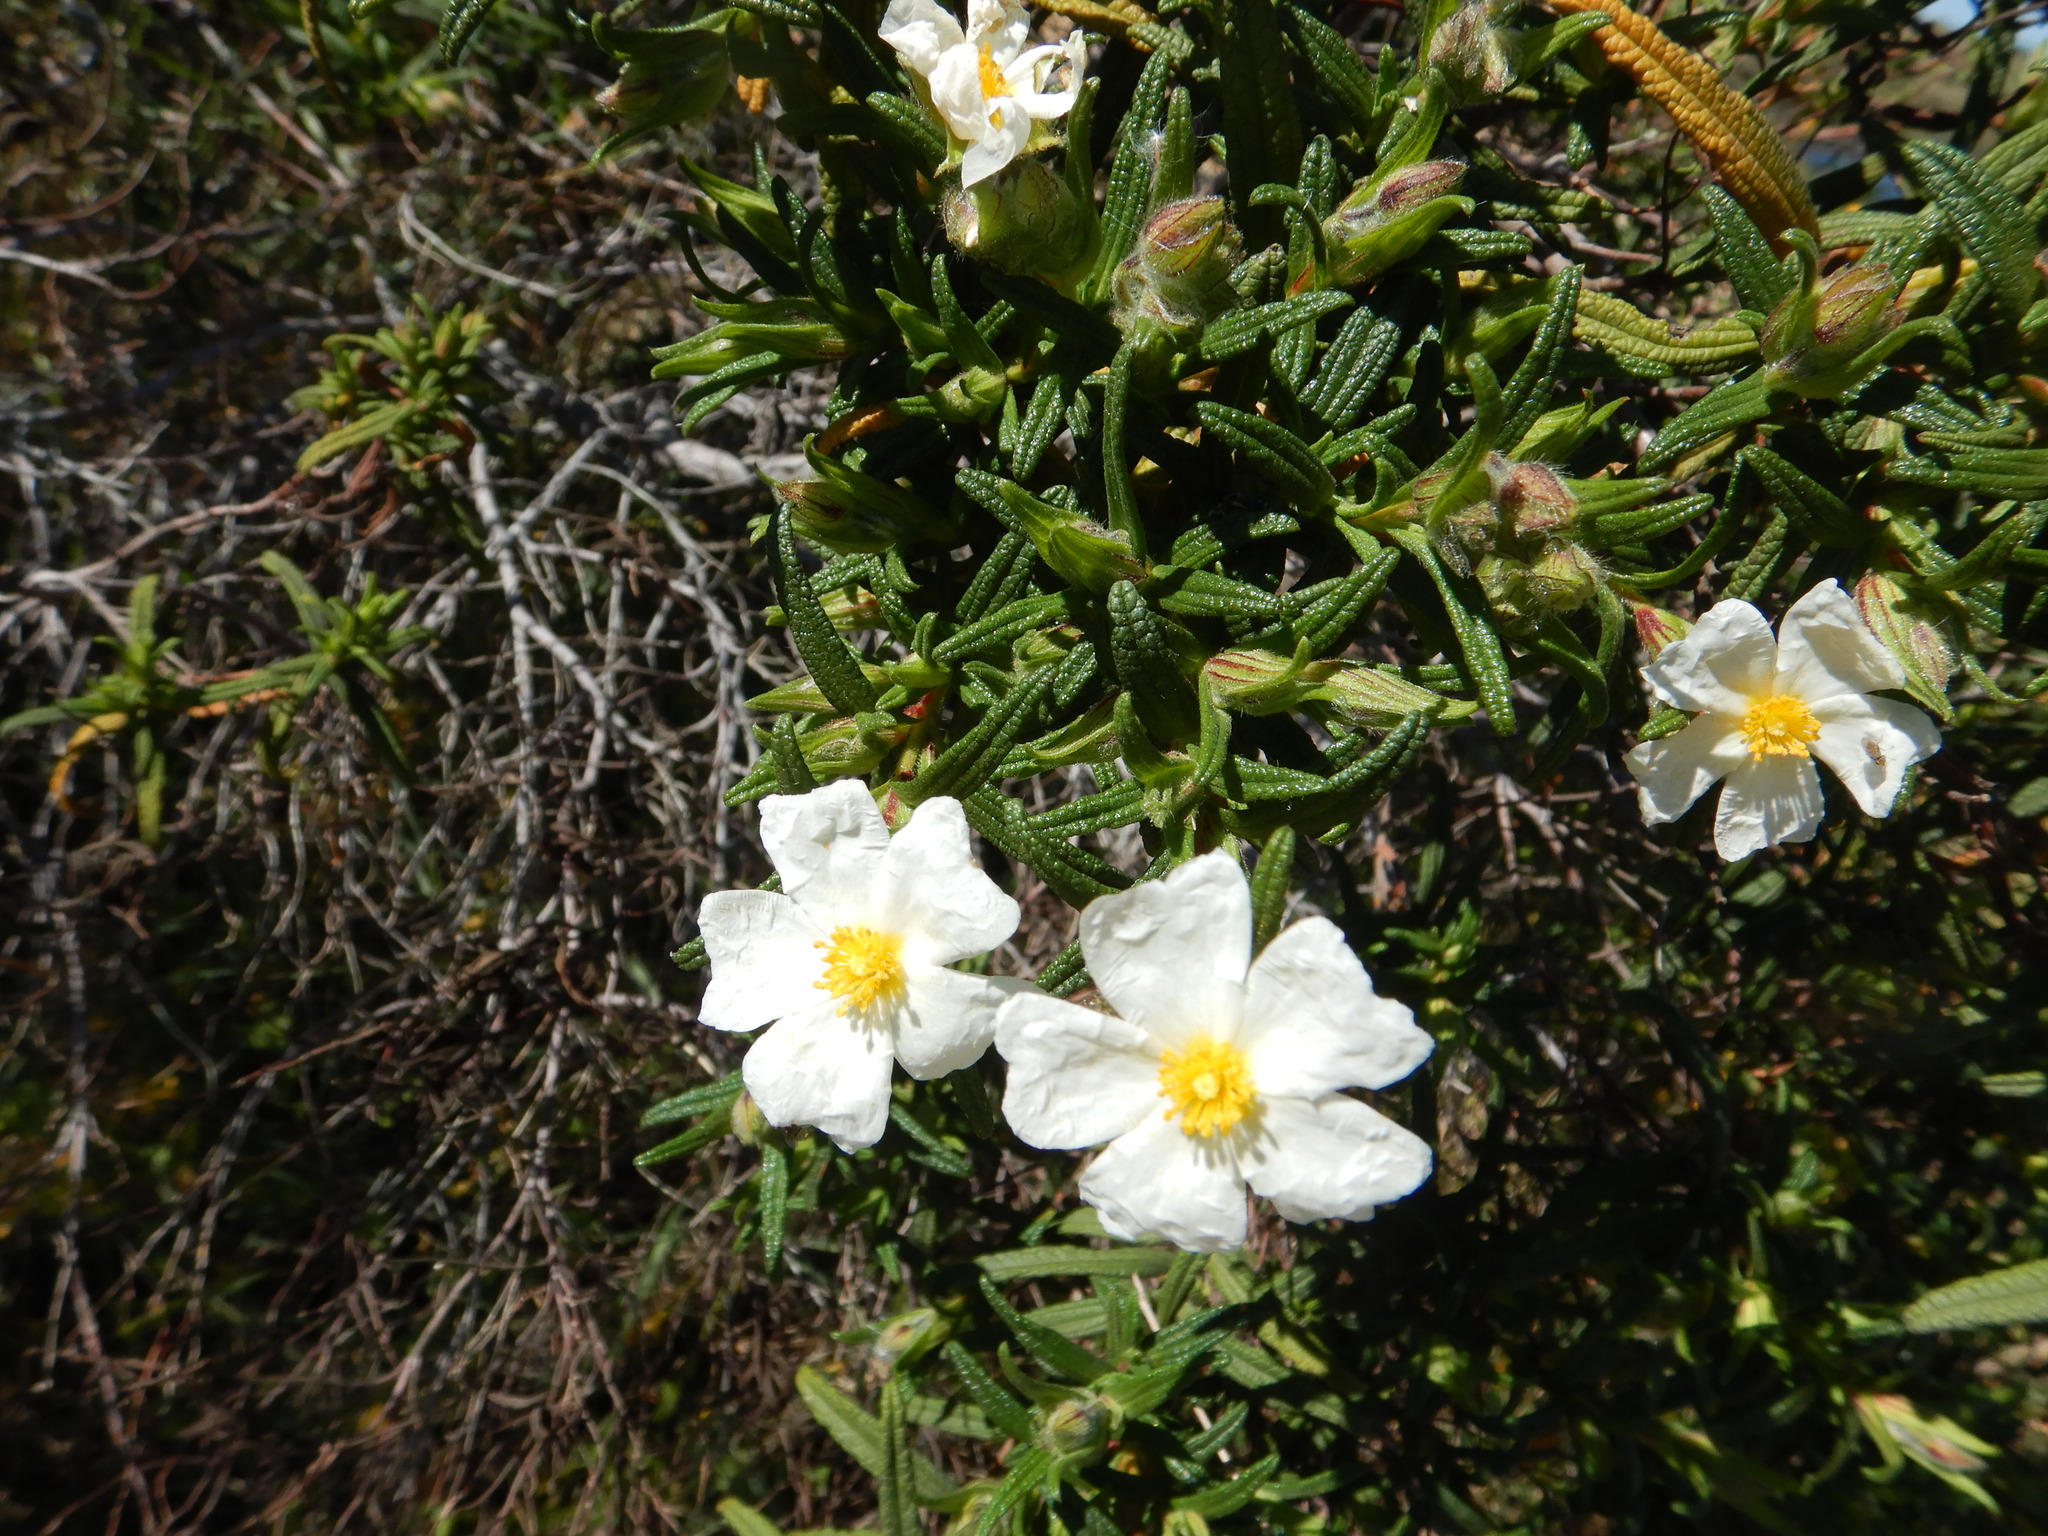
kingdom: Plantae
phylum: Tracheophyta
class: Magnoliopsida
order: Malvales
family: Cistaceae
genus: Cistus
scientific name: Cistus monspeliensis
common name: Montpelier cistus
